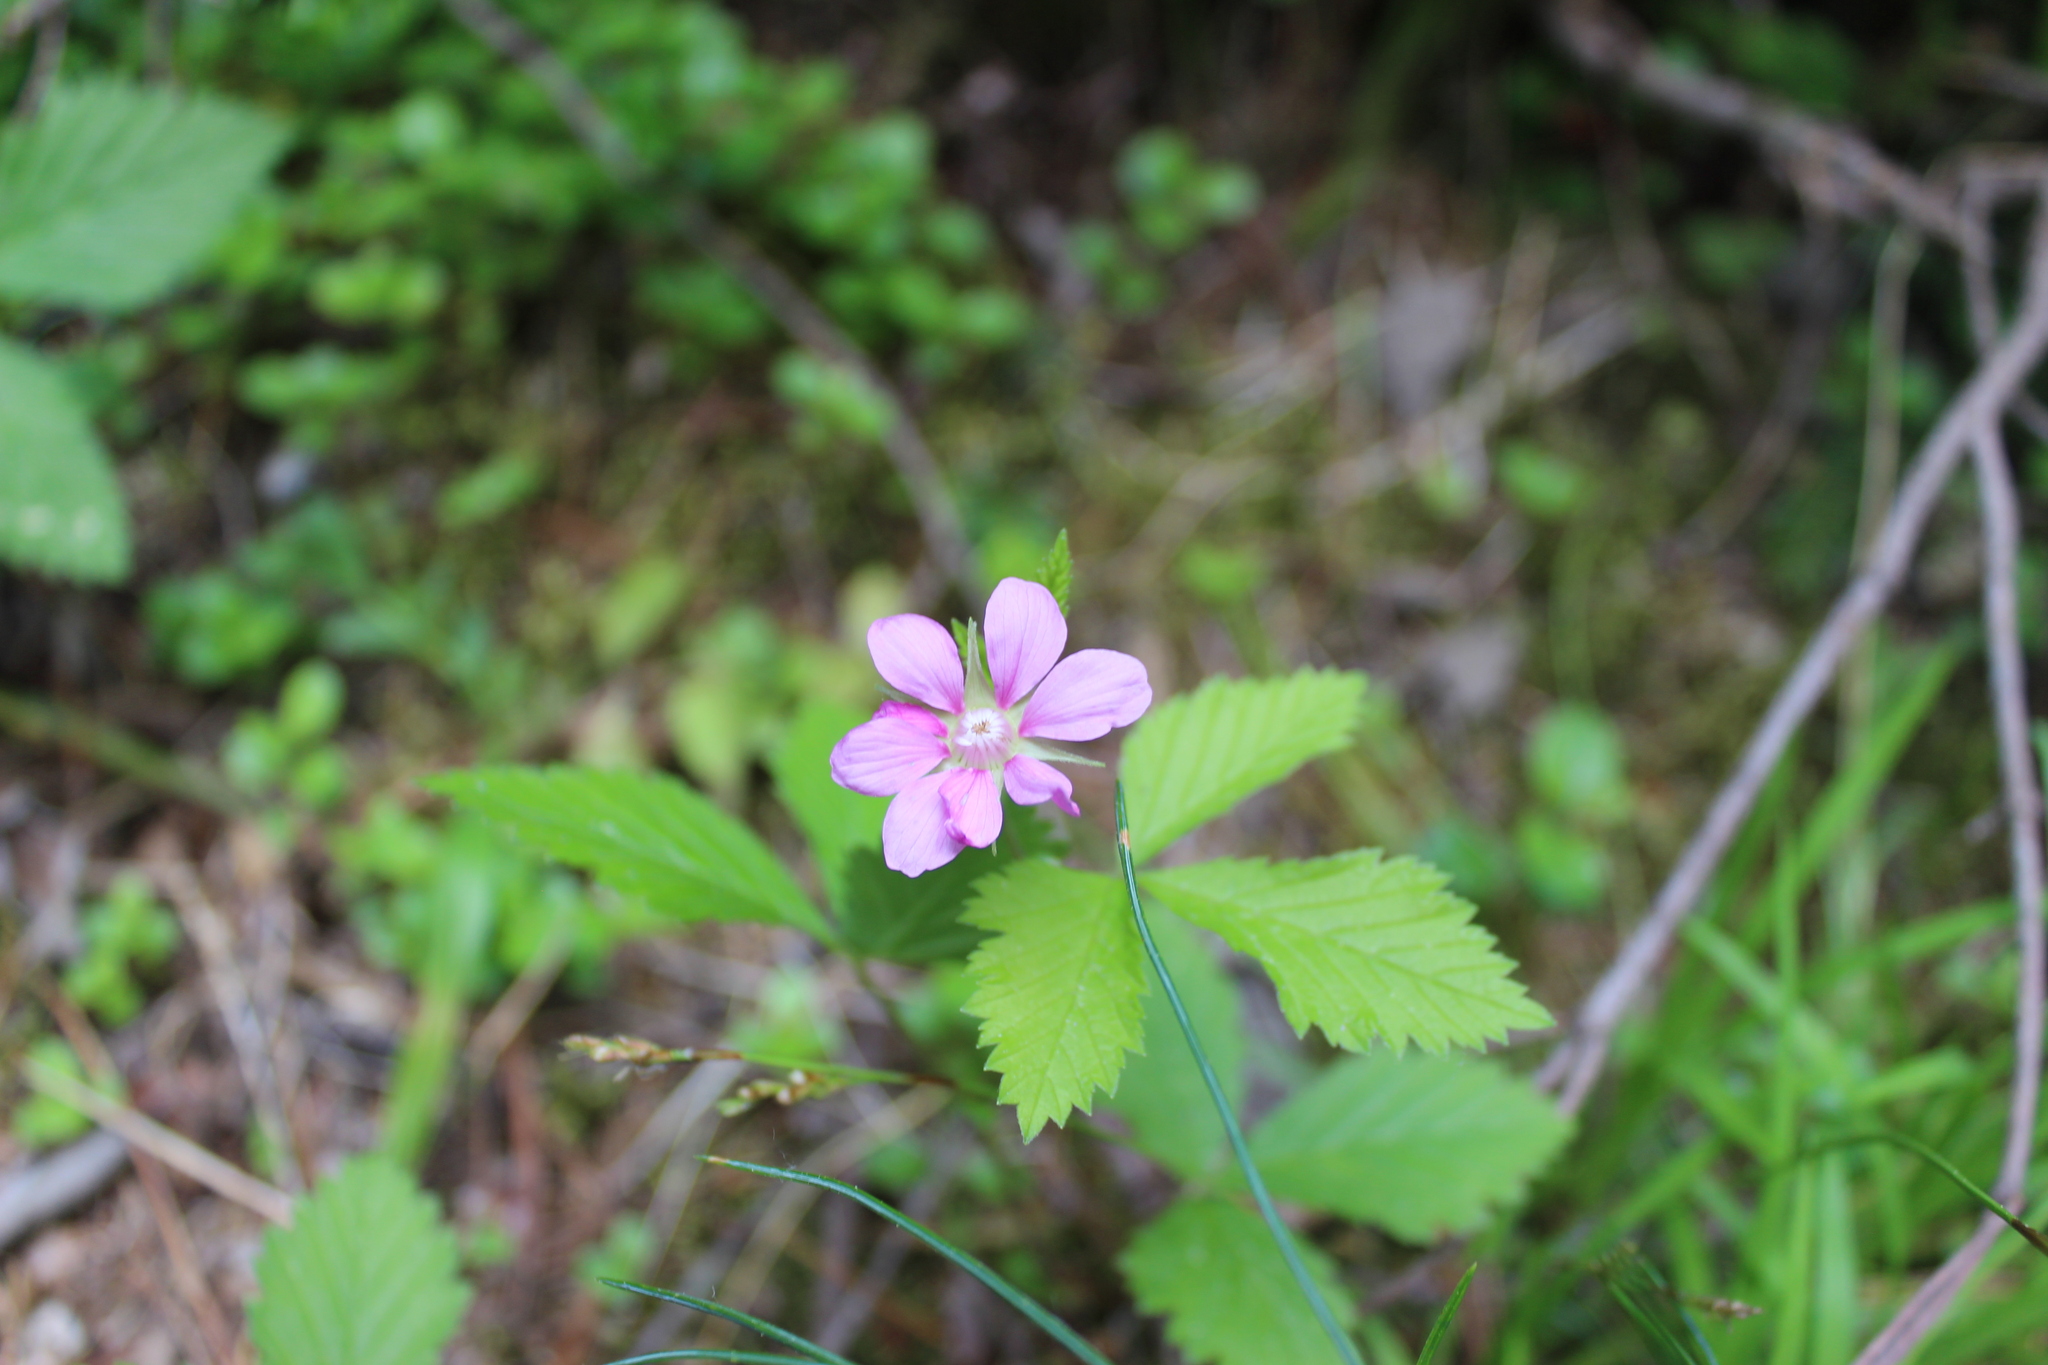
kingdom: Plantae
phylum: Tracheophyta
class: Magnoliopsida
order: Rosales
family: Rosaceae
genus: Rubus
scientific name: Rubus arcticus
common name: Arctic bramble
